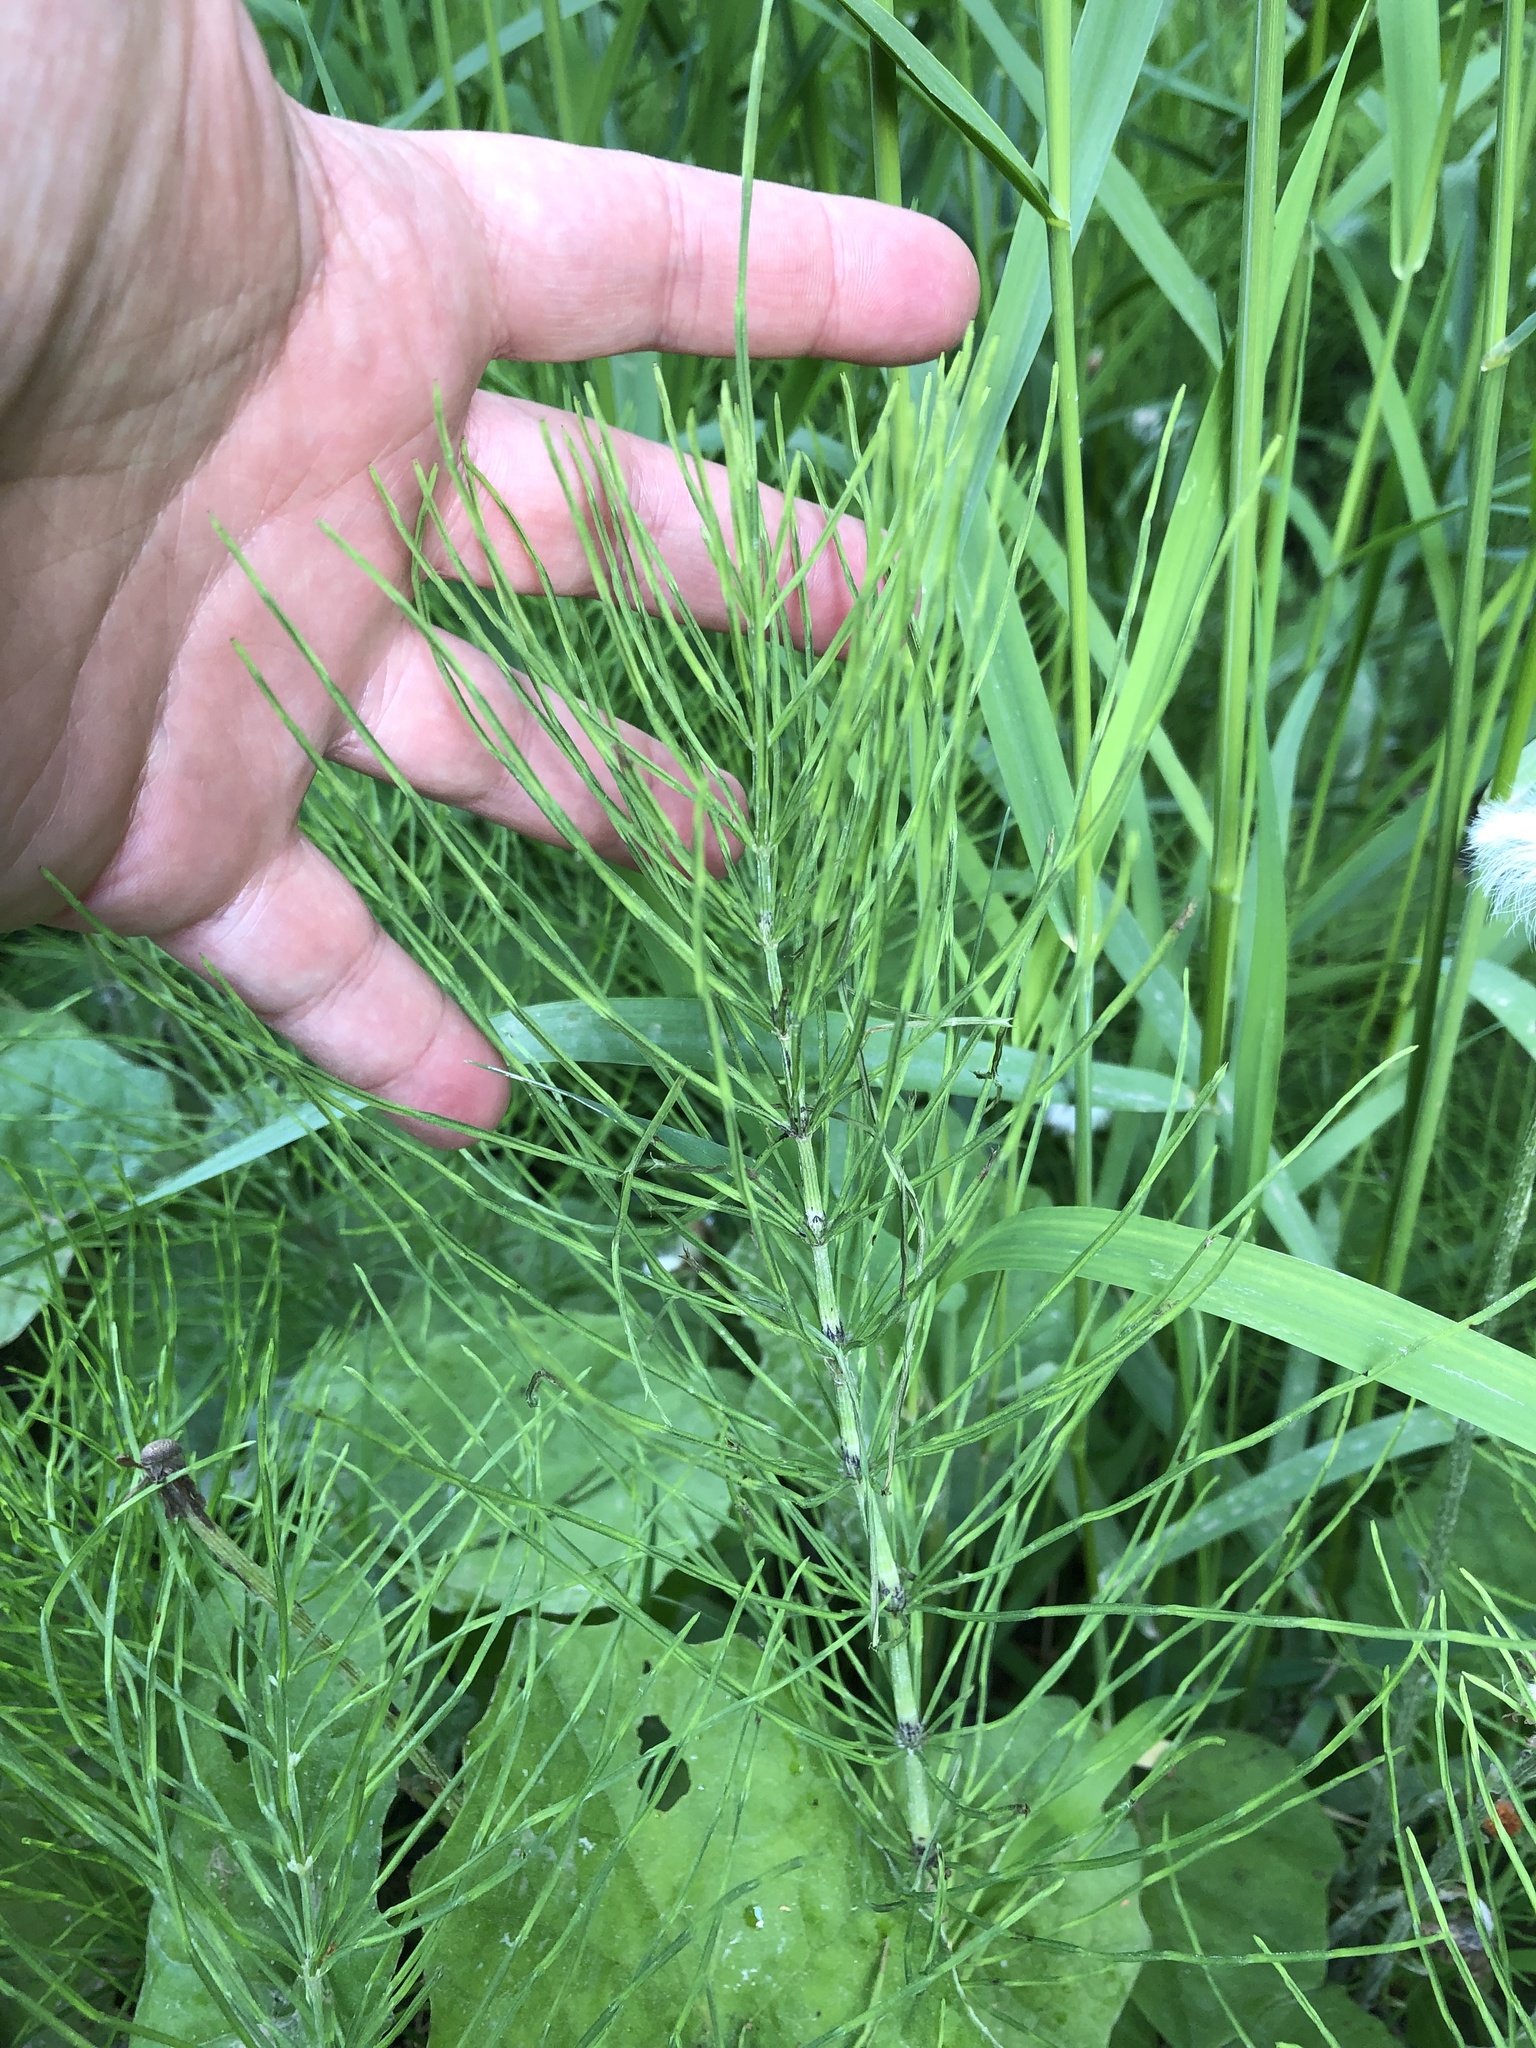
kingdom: Plantae
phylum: Tracheophyta
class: Polypodiopsida
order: Equisetales
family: Equisetaceae
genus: Equisetum
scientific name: Equisetum arvense
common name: Field horsetail
